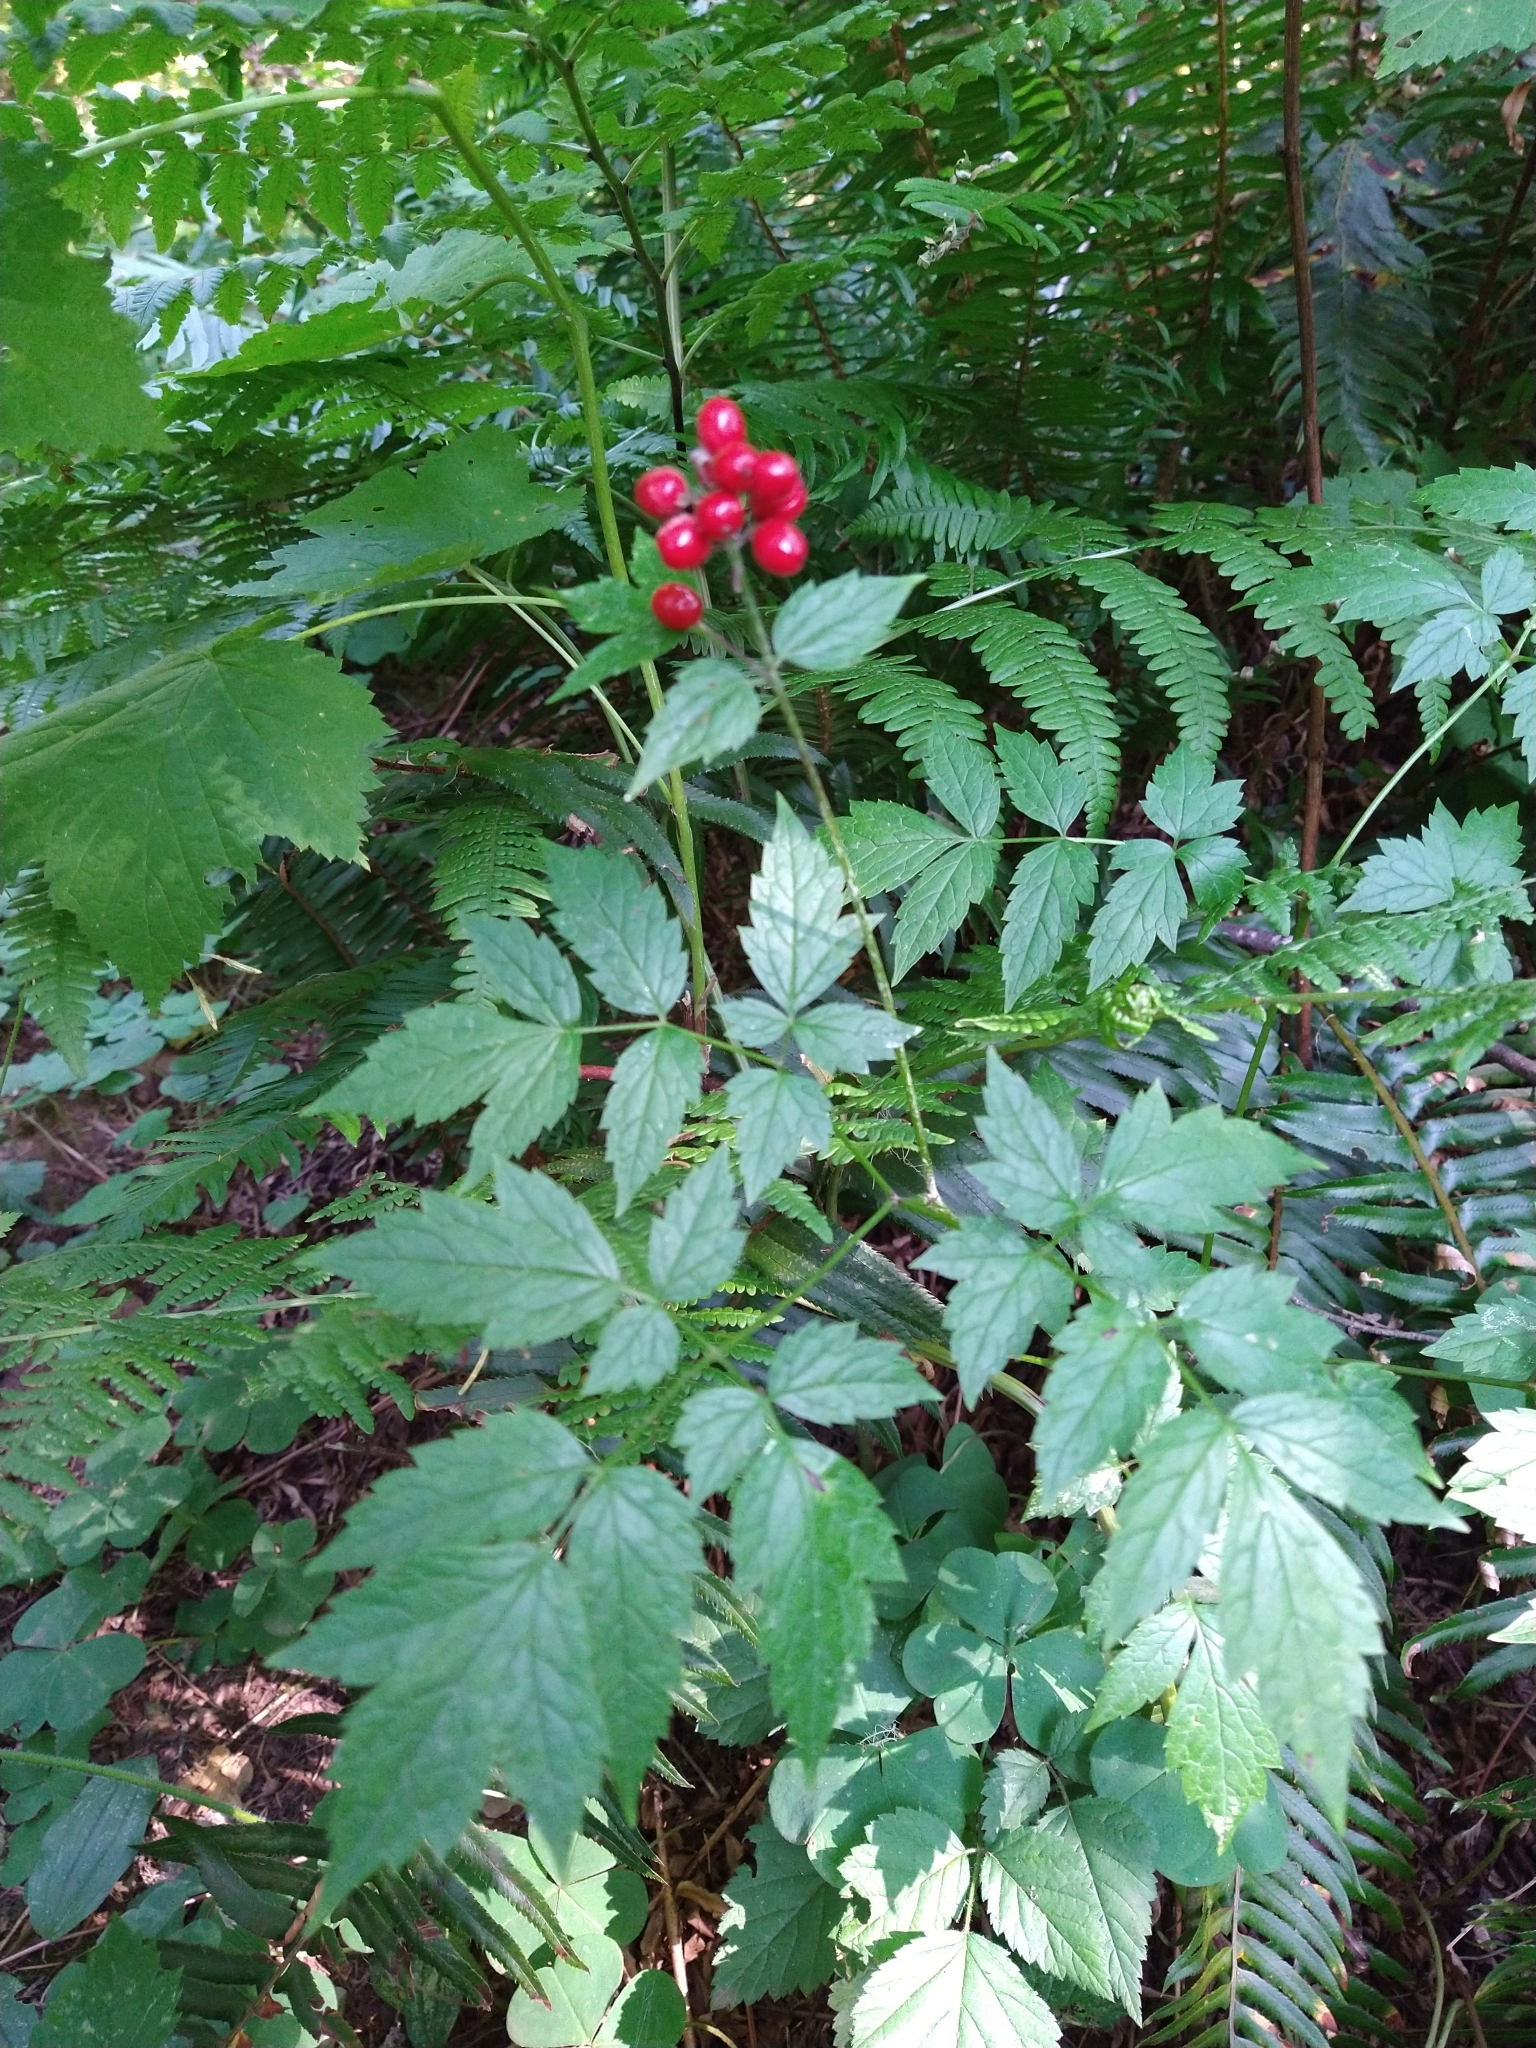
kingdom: Plantae
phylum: Tracheophyta
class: Magnoliopsida
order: Ranunculales
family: Ranunculaceae
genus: Actaea
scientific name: Actaea rubra
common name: Red baneberry
